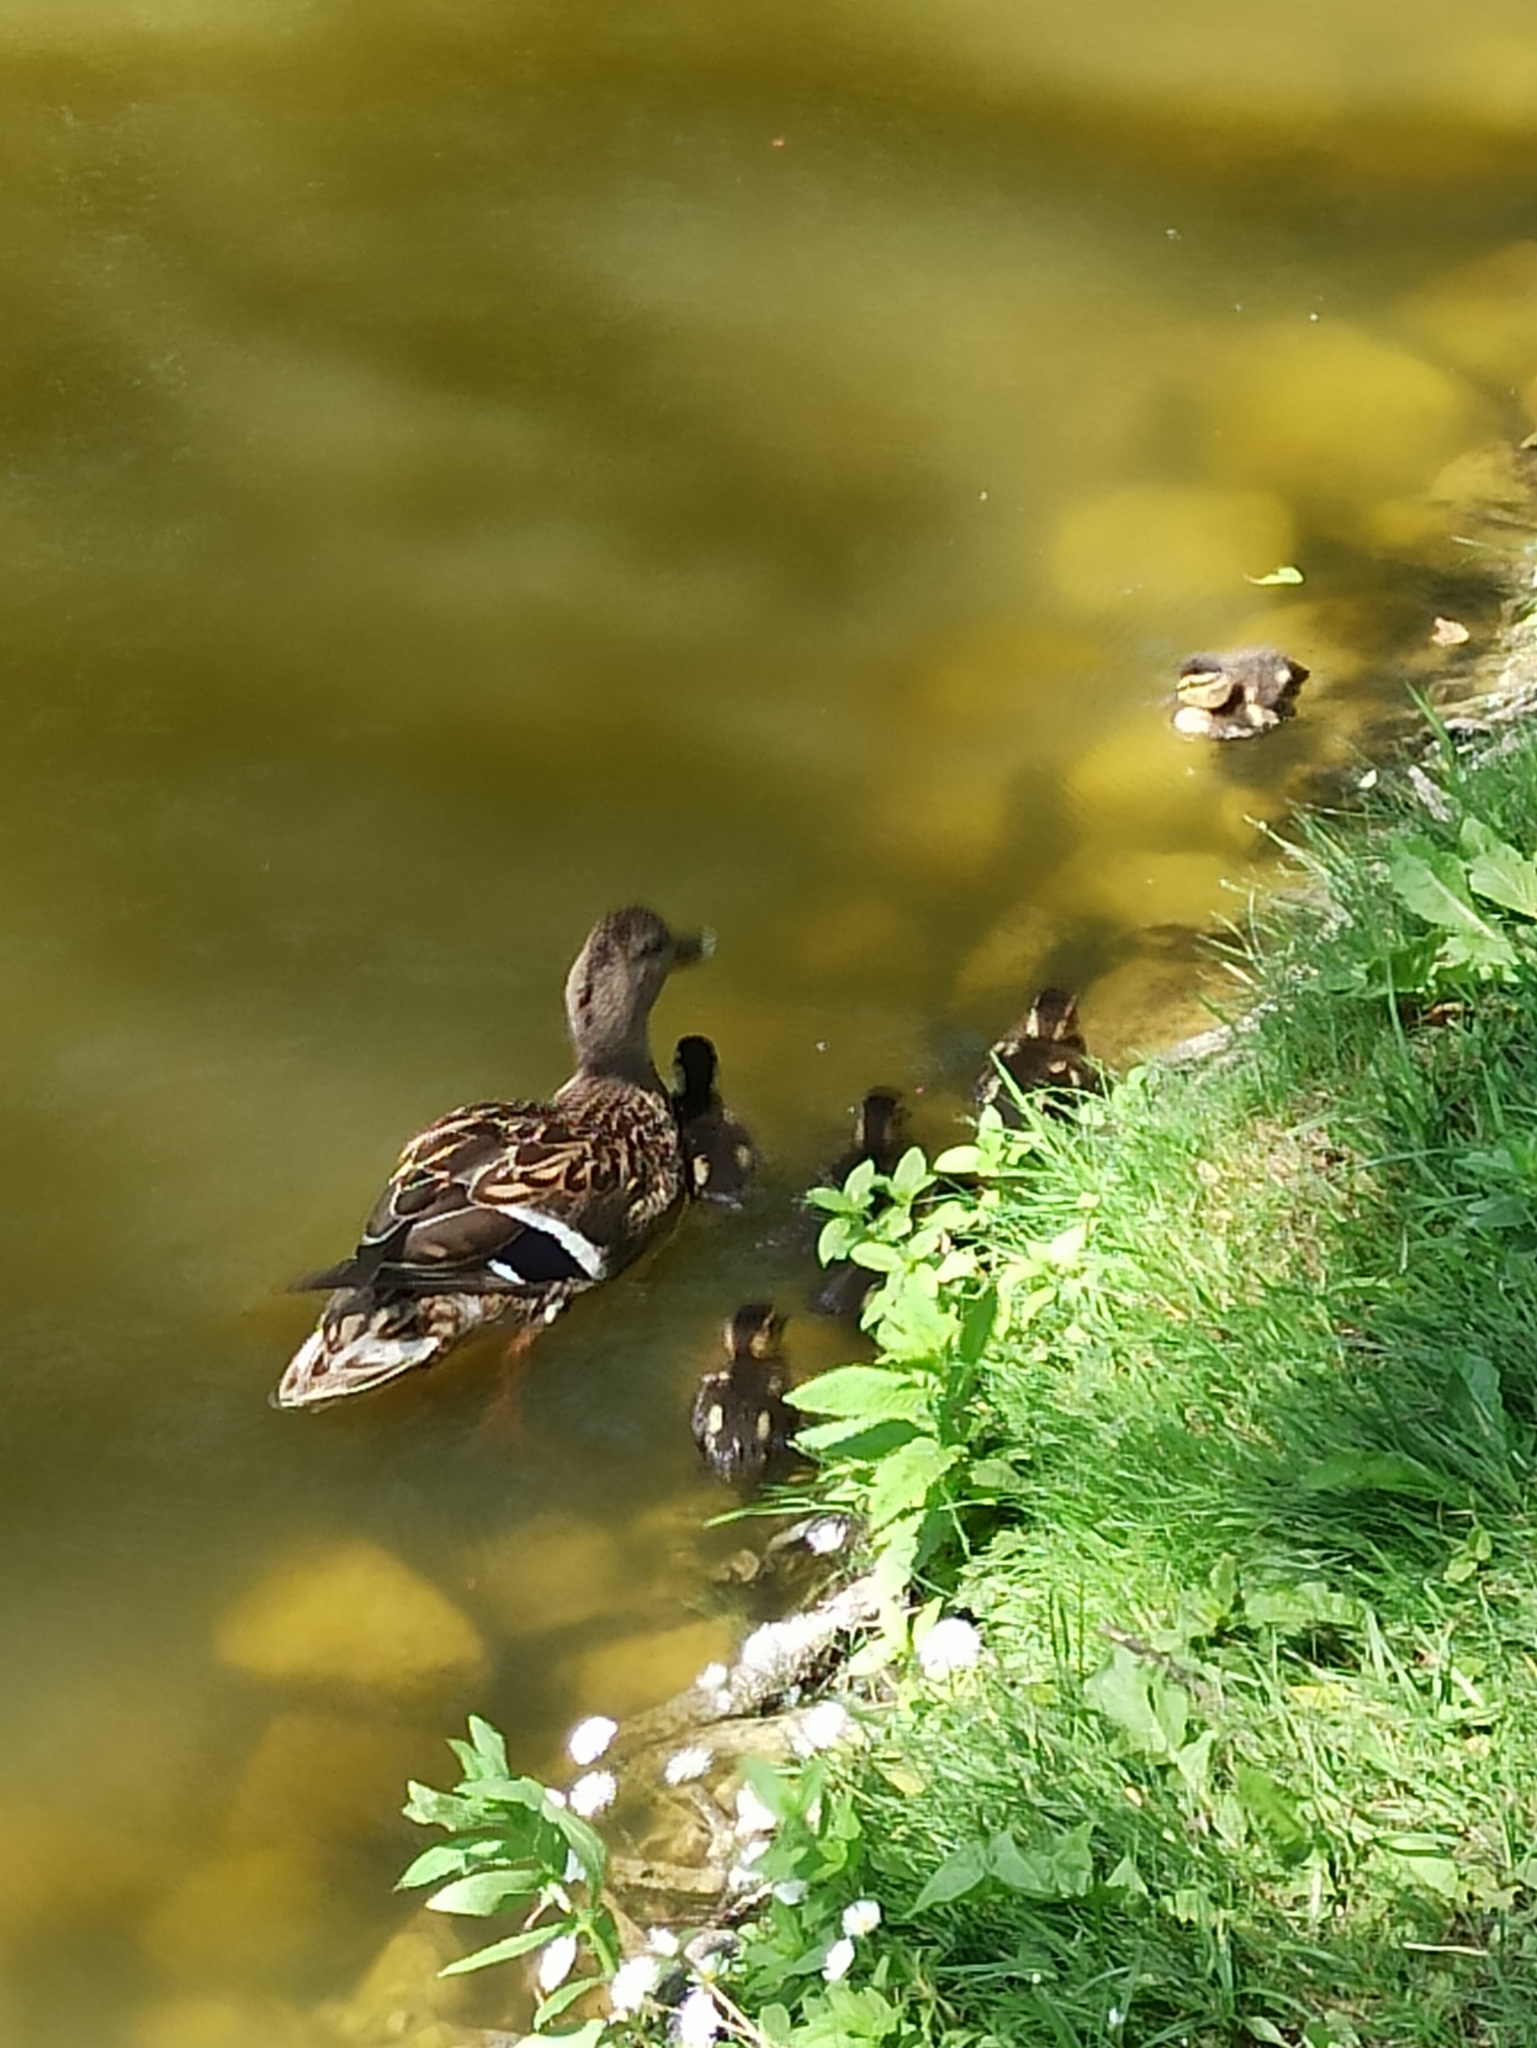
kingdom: Animalia
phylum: Chordata
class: Aves
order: Anseriformes
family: Anatidae
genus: Anas
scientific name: Anas platyrhynchos
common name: Mallard
